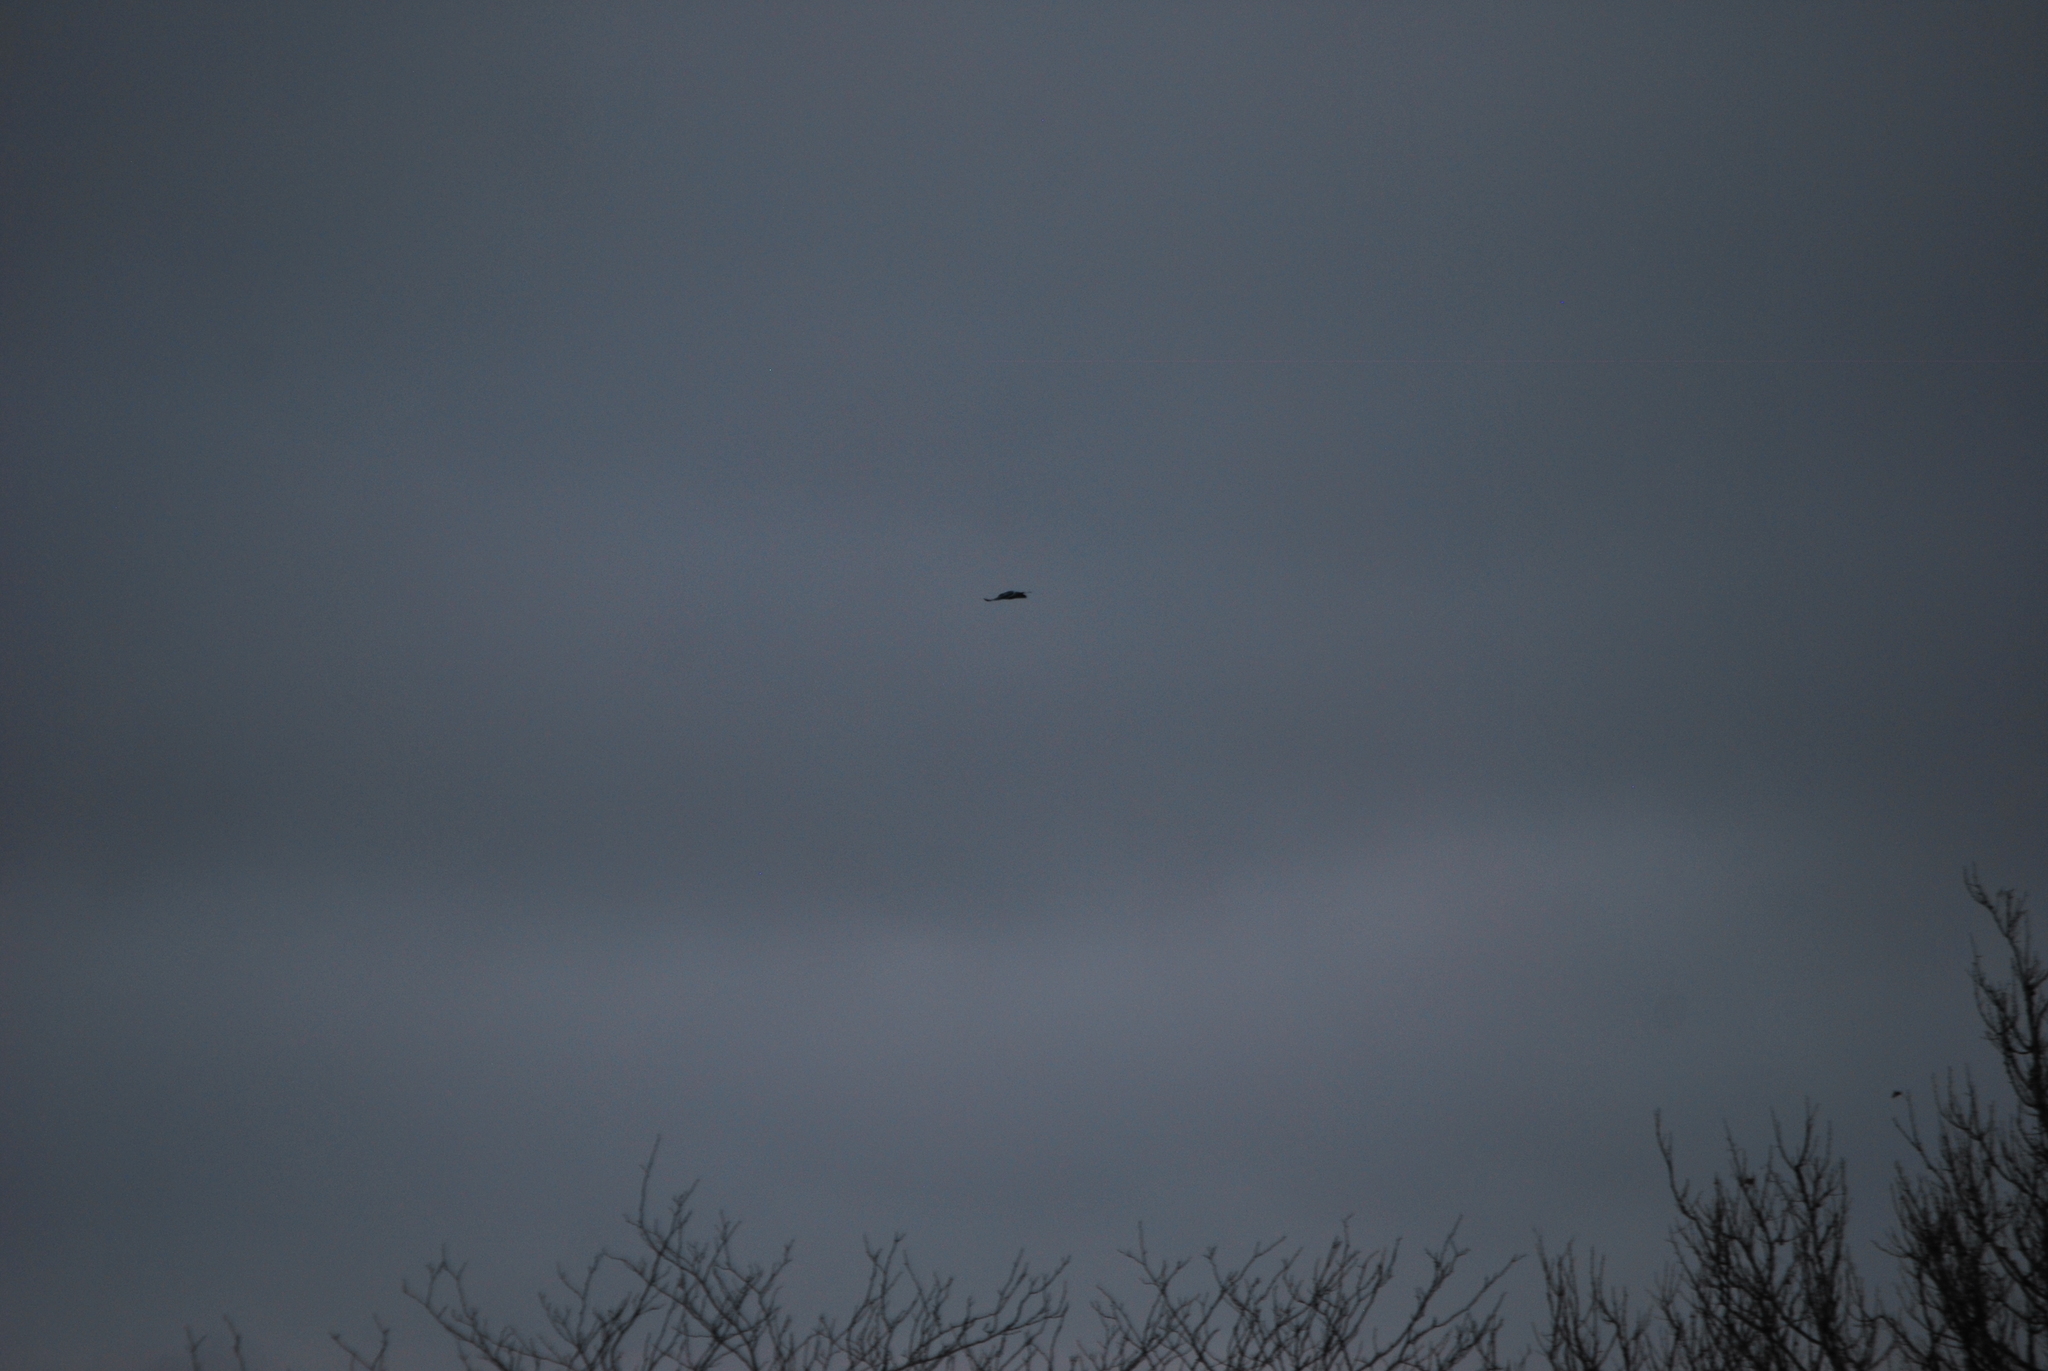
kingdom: Animalia
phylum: Chordata
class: Aves
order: Passeriformes
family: Corvidae
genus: Cyanocitta
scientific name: Cyanocitta cristata
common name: Blue jay
